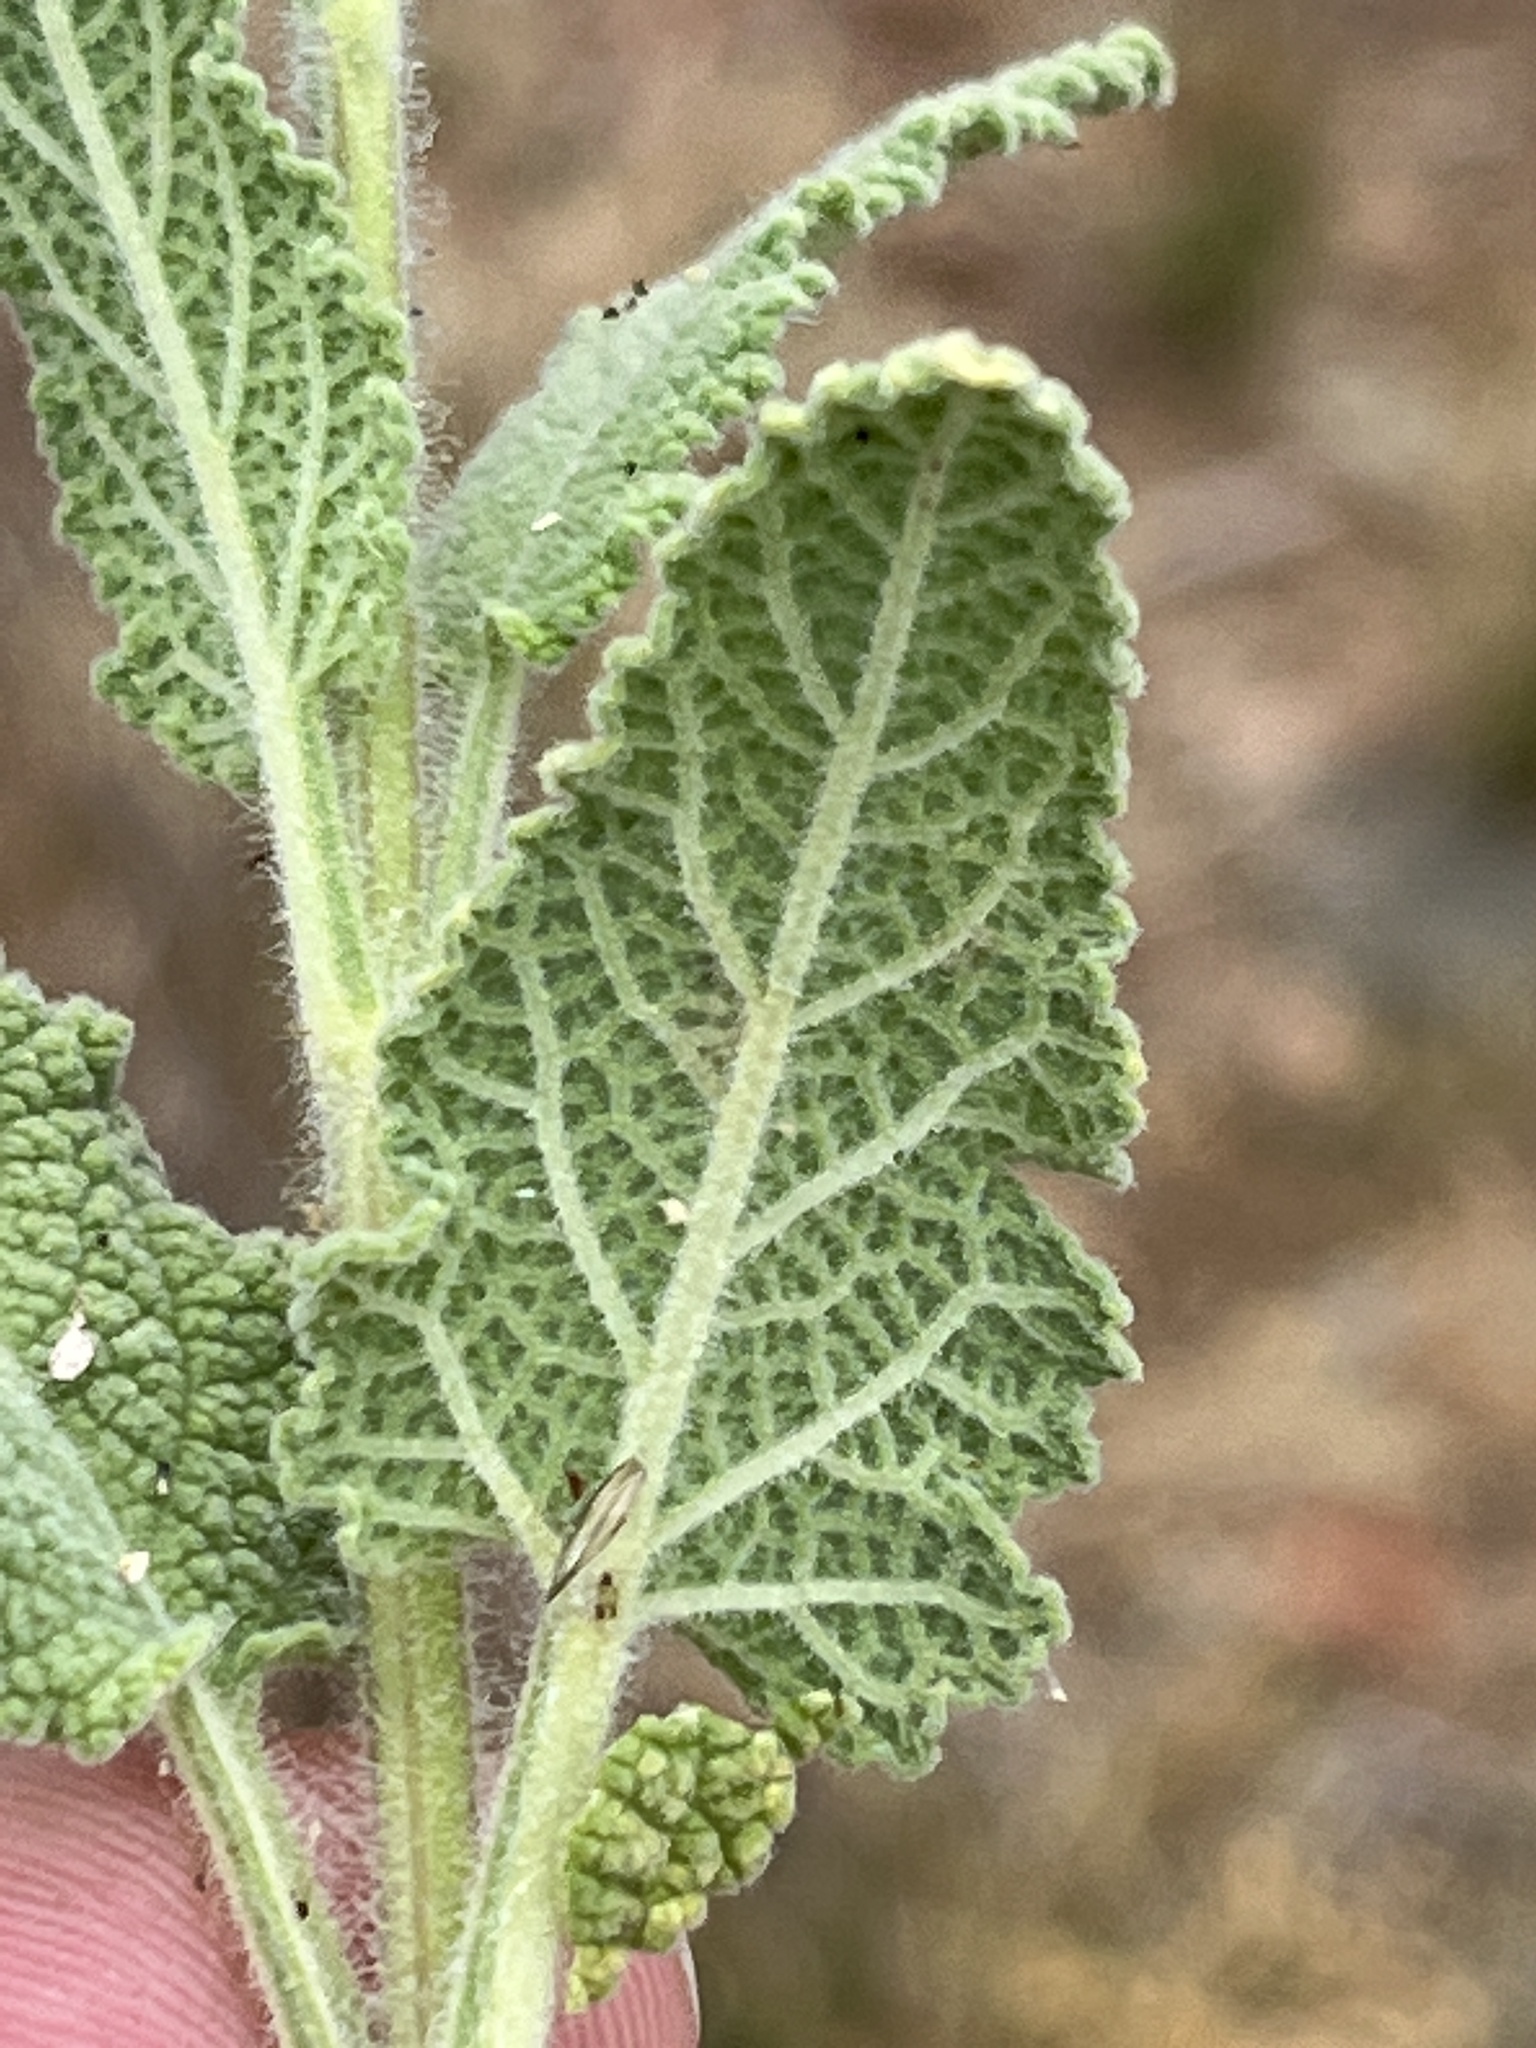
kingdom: Plantae
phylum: Tracheophyta
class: Magnoliopsida
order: Lamiales
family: Lamiaceae
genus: Salvia
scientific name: Salvia disermas
